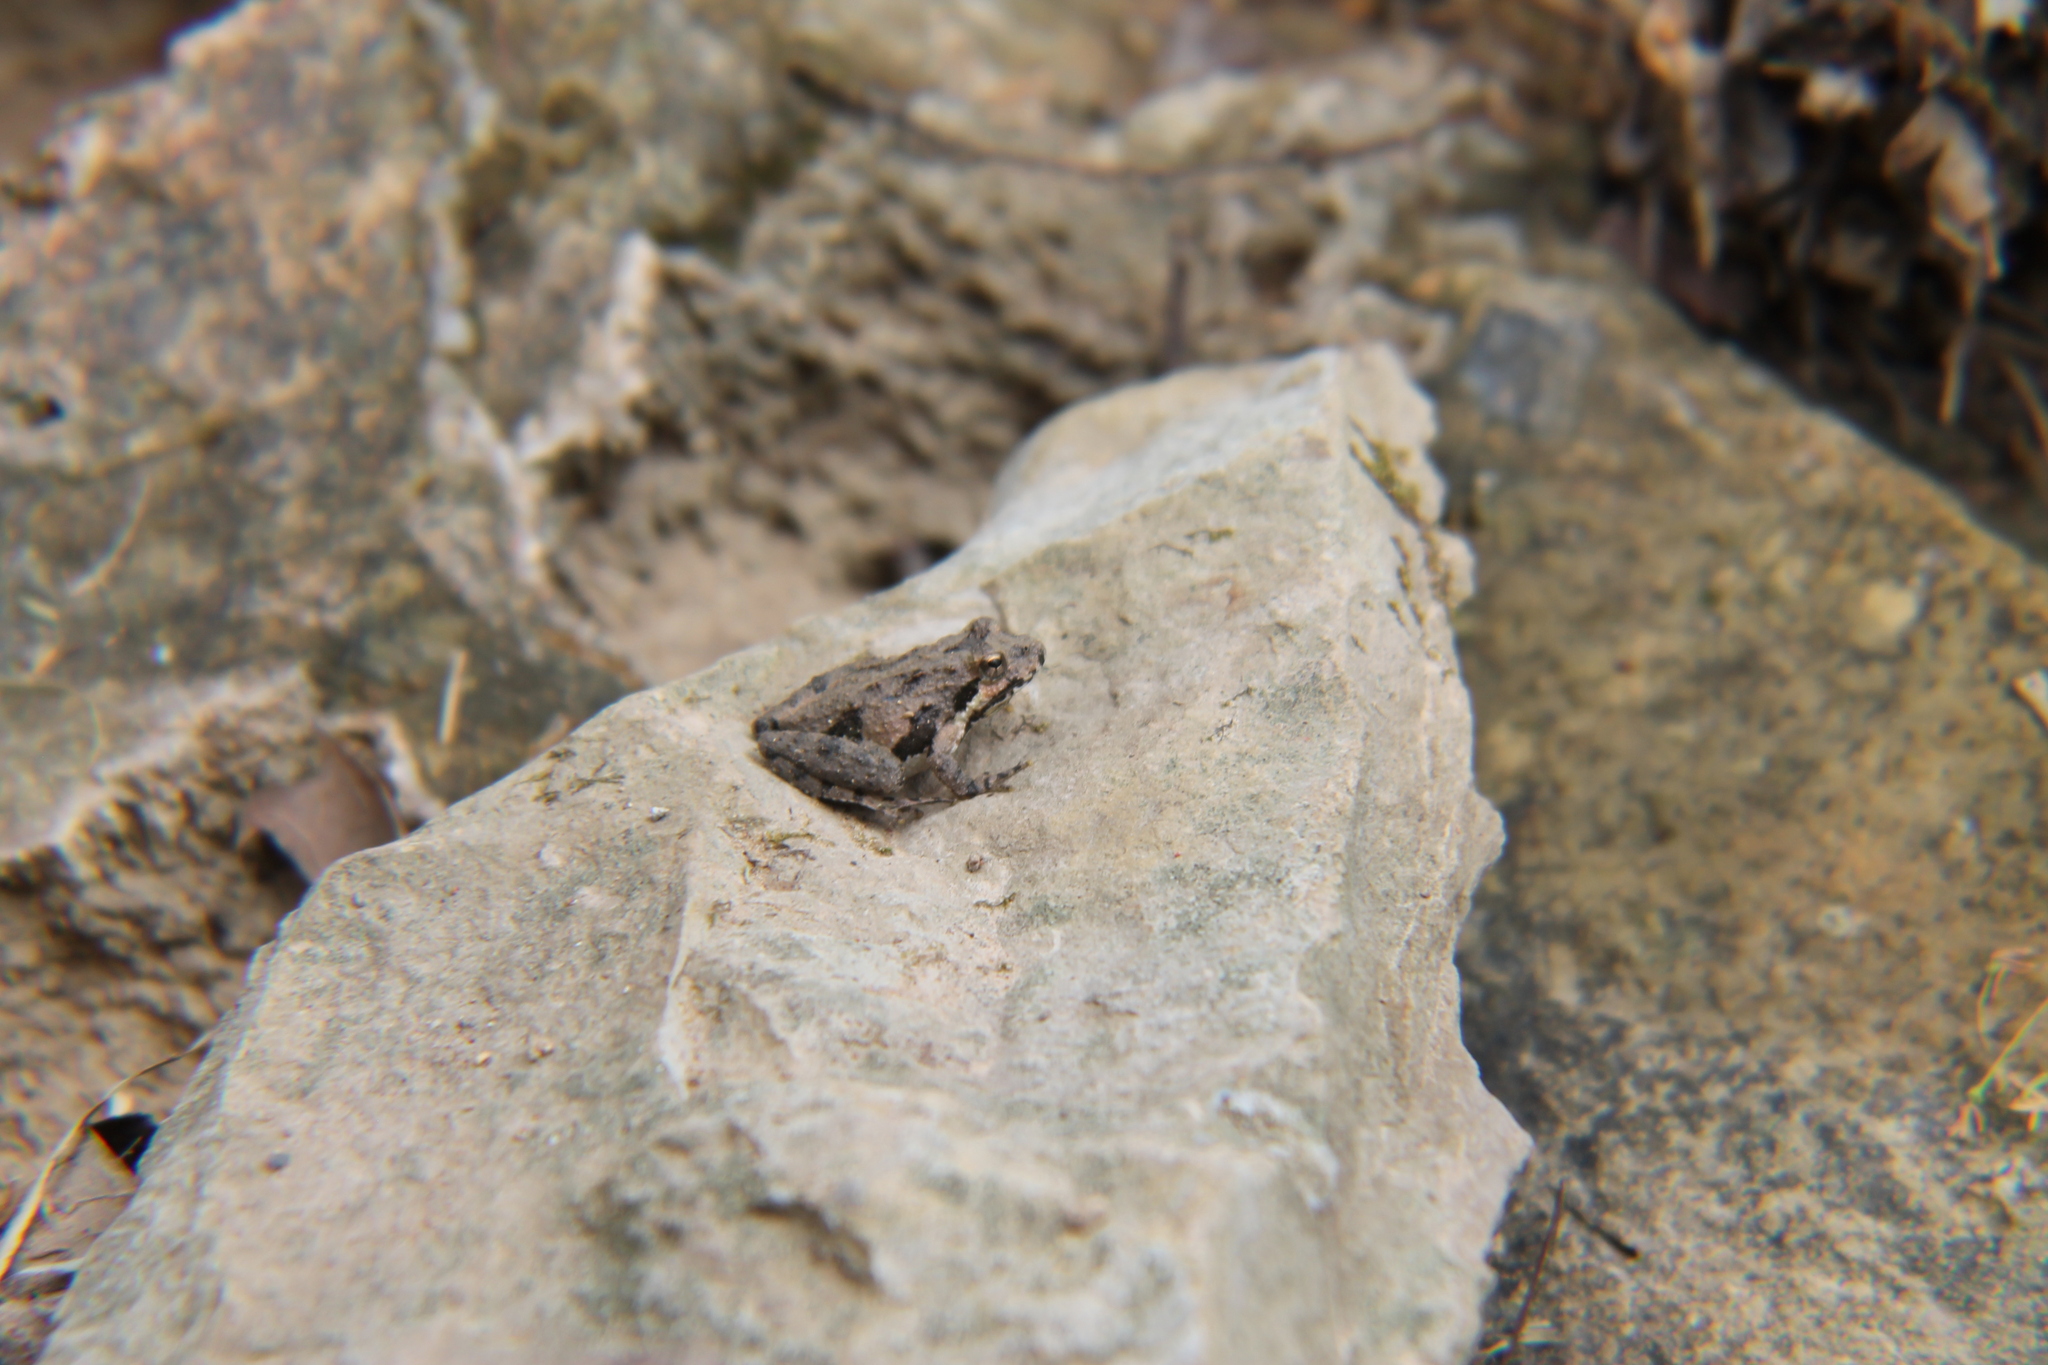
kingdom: Animalia
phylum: Chordata
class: Amphibia
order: Anura
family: Hylidae
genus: Acris
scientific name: Acris crepitans
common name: Northern cricket frog
